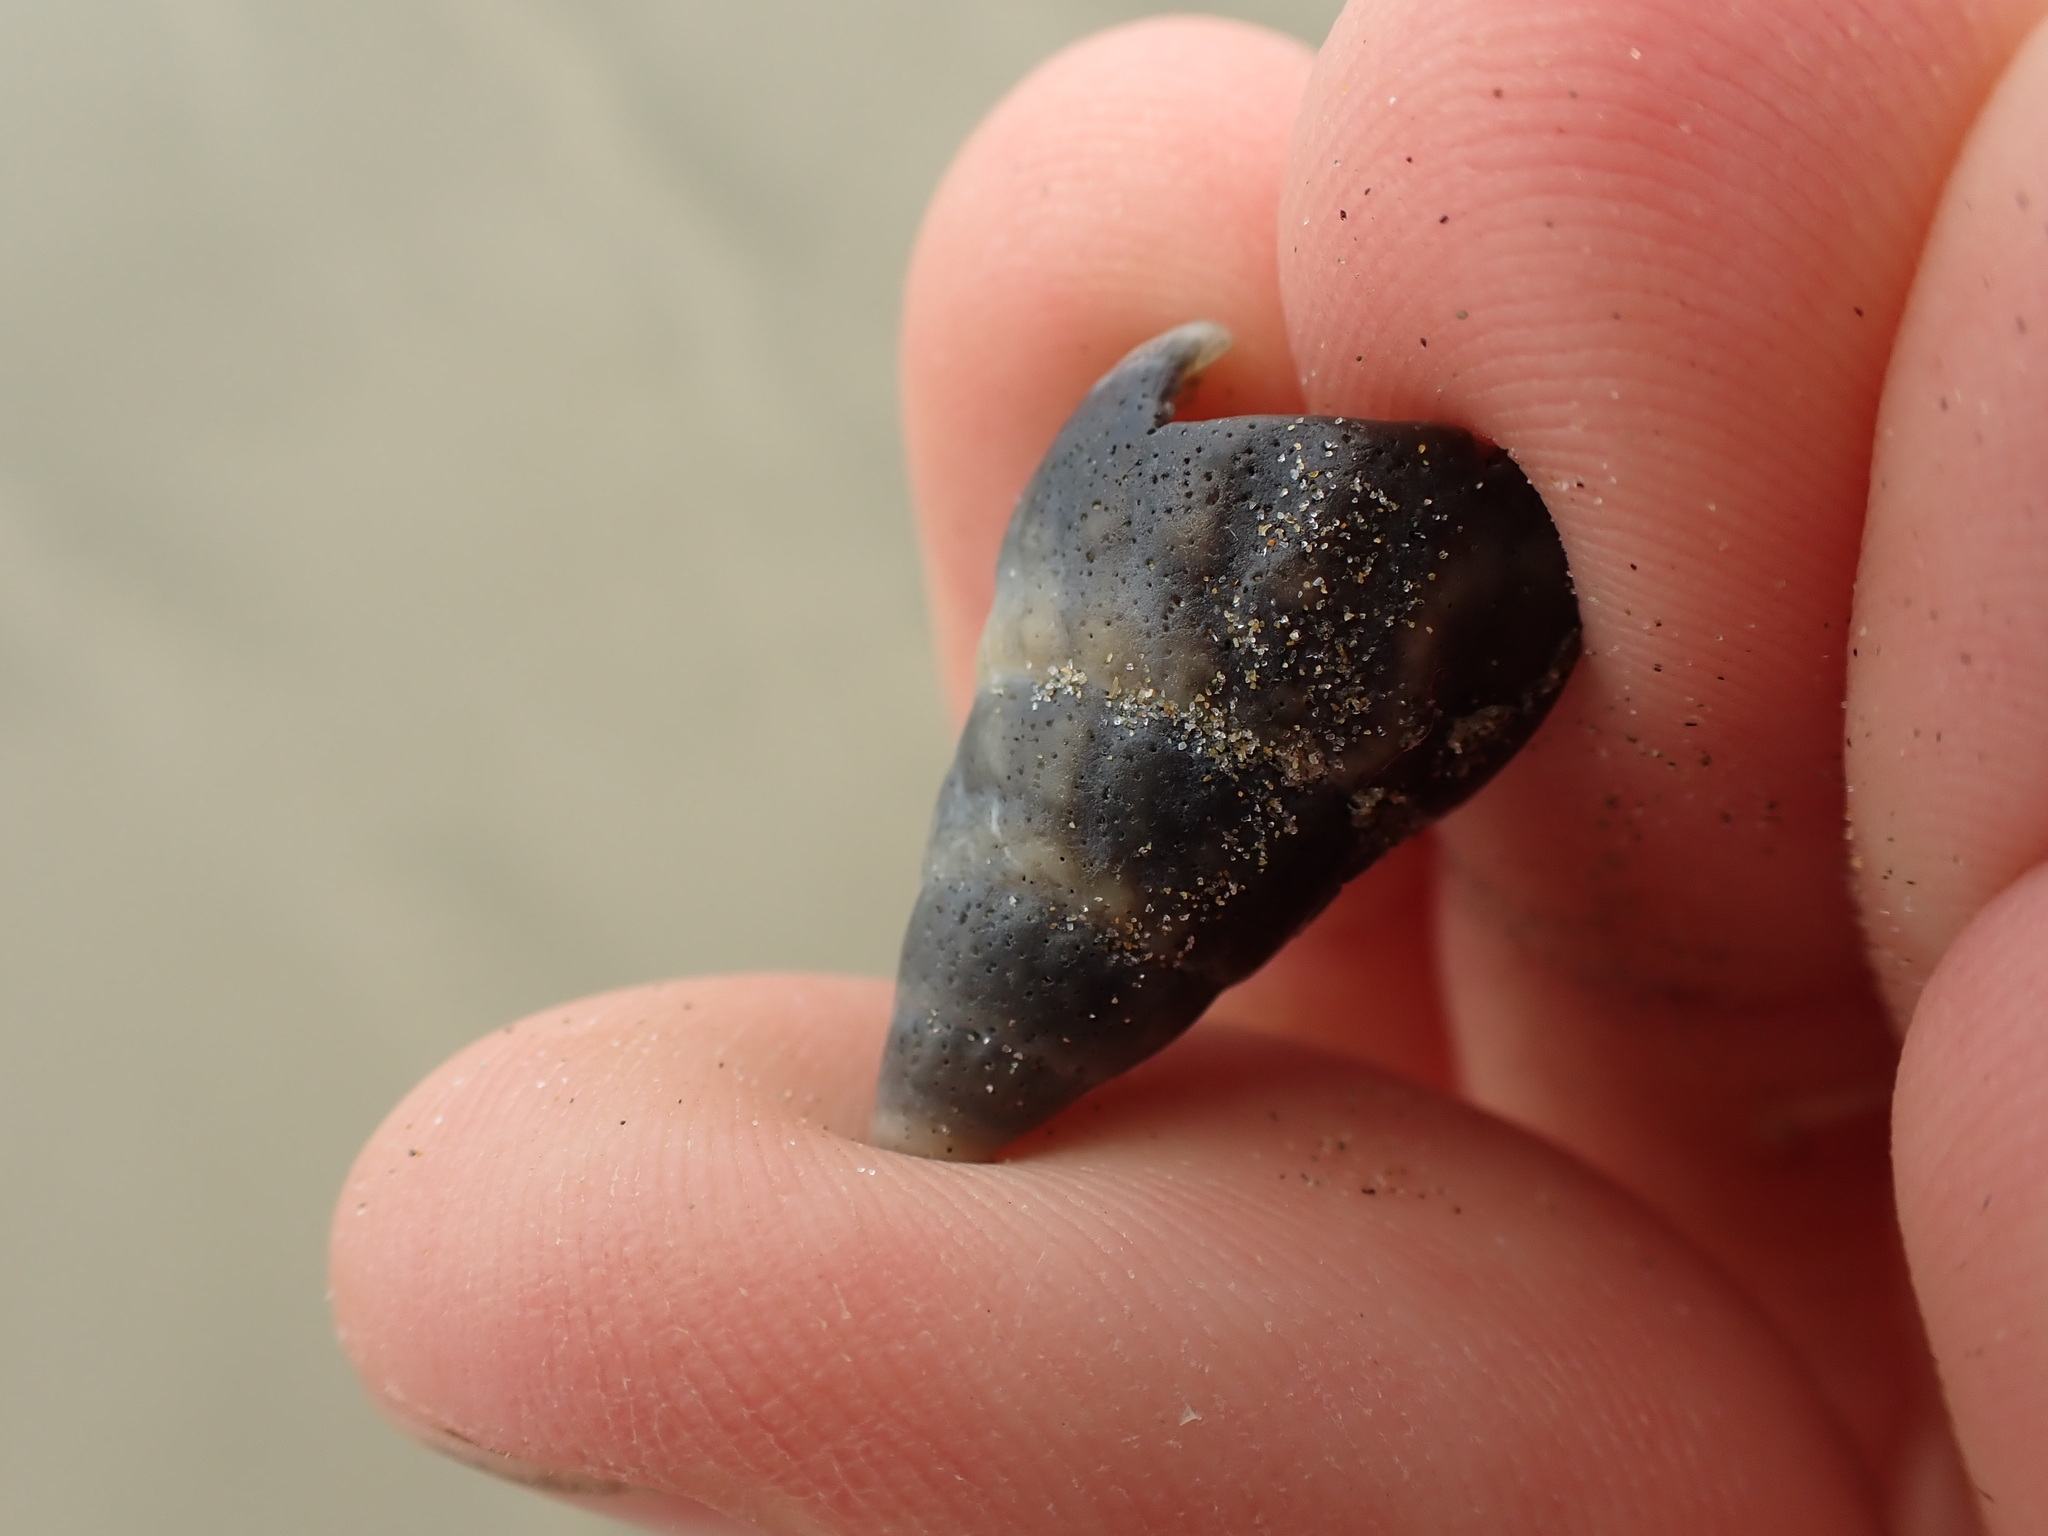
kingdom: Animalia
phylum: Mollusca
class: Gastropoda
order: Neogastropoda
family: Cominellidae
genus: Cominella
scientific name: Cominella nassoides
